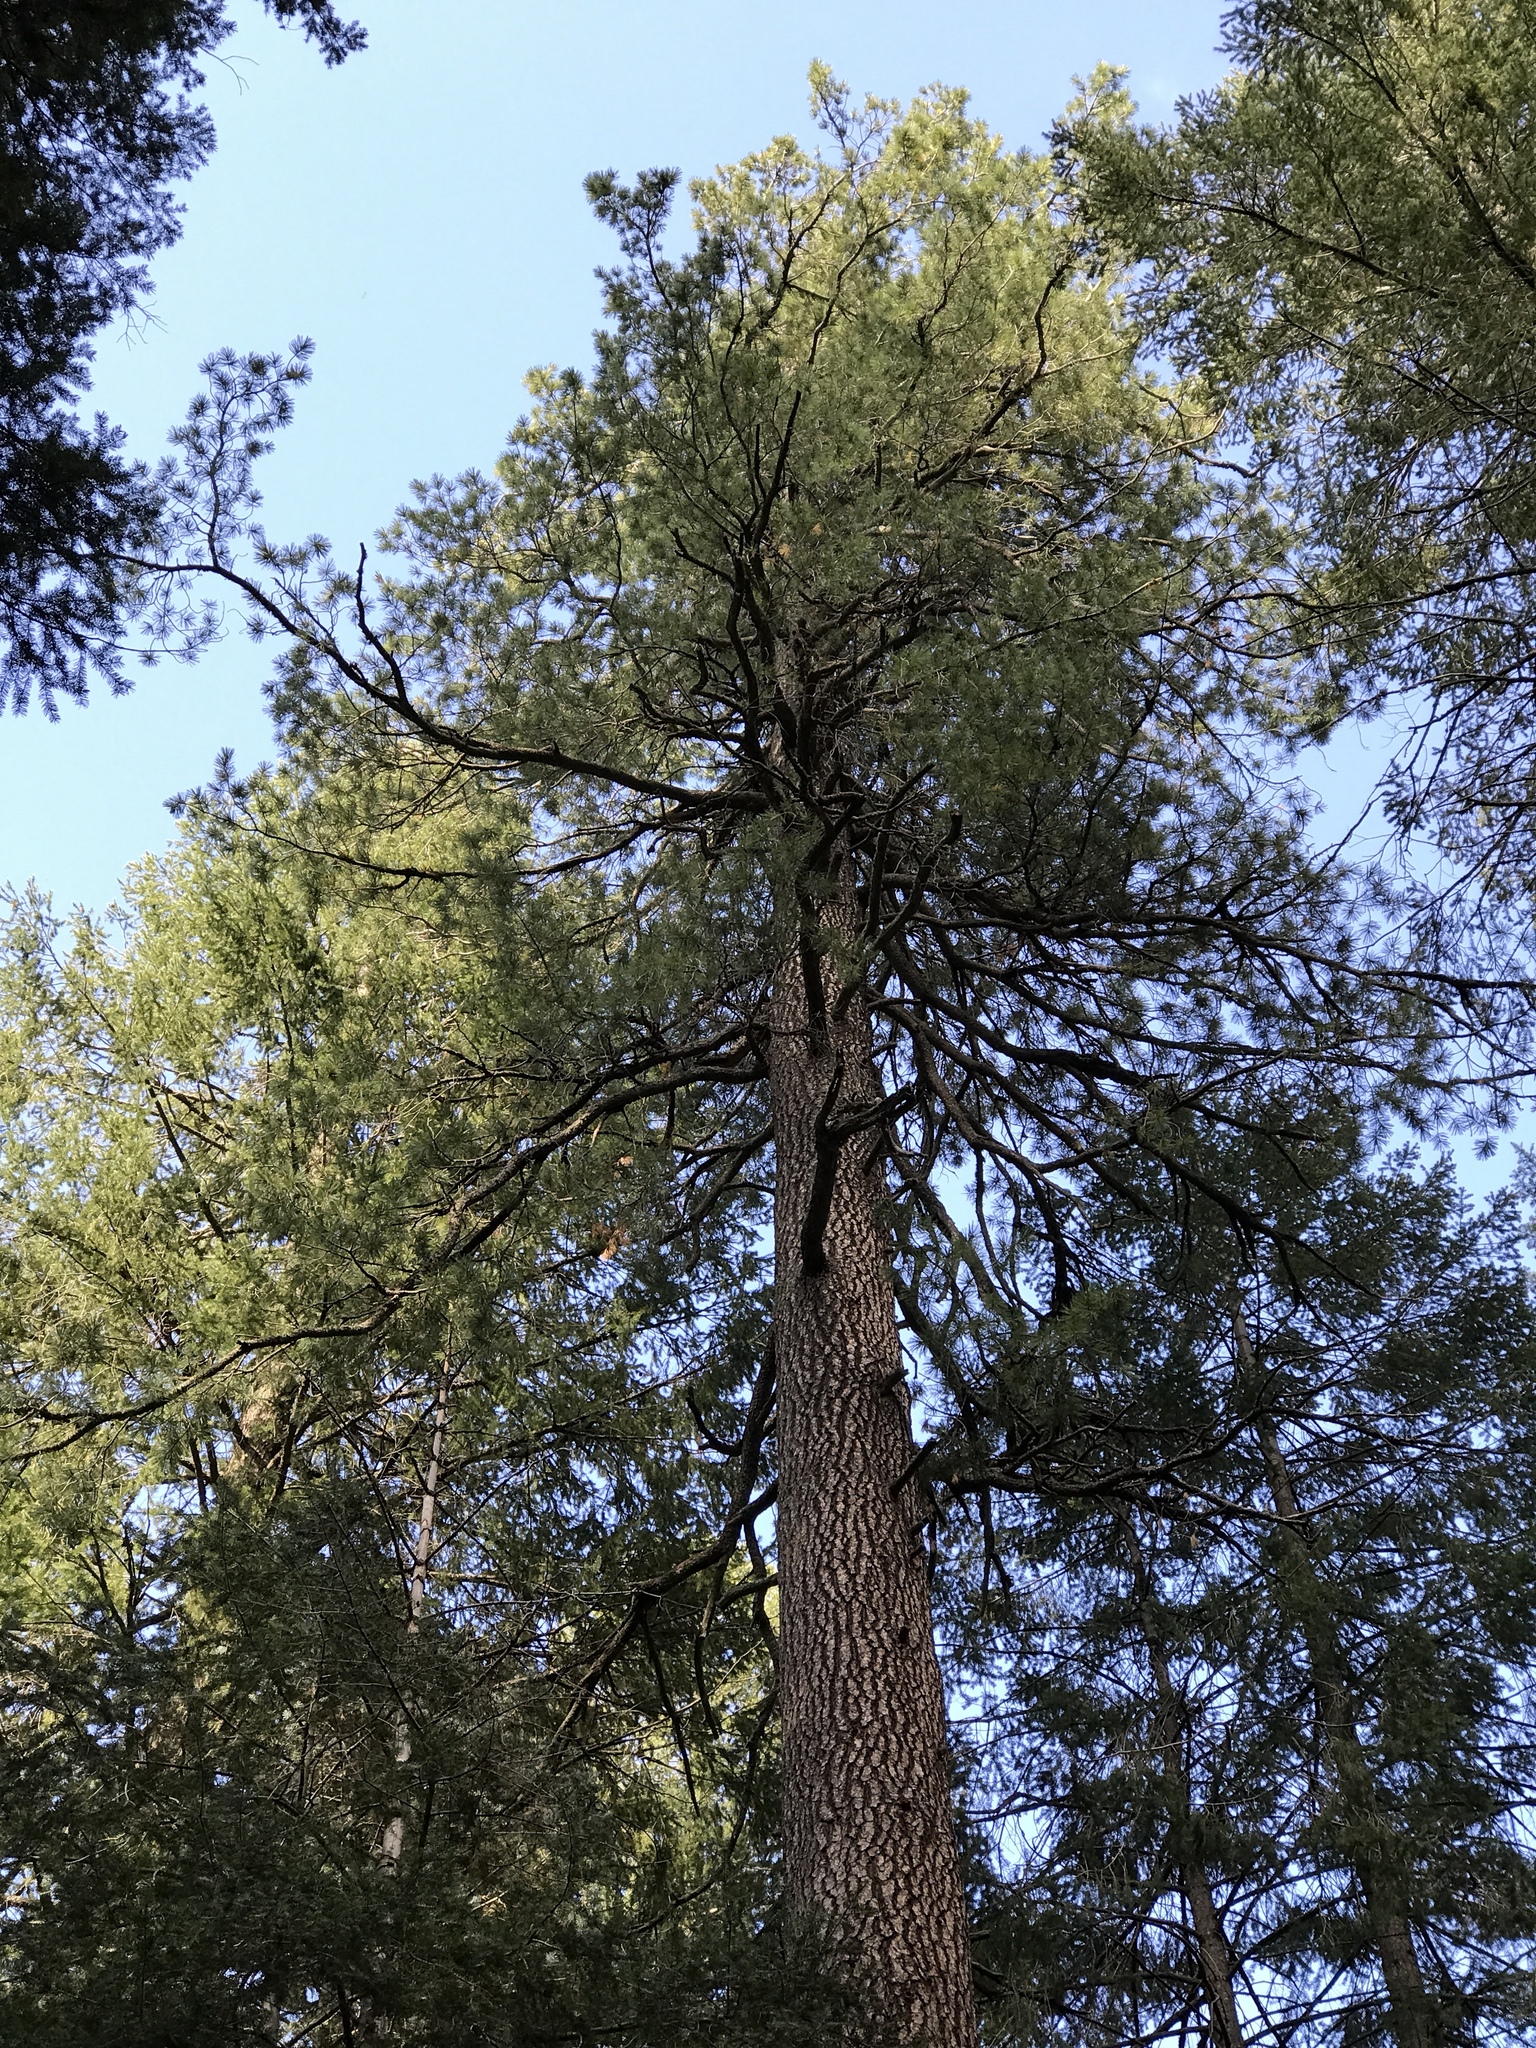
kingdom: Plantae
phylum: Tracheophyta
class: Pinopsida
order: Pinales
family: Pinaceae
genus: Pinus
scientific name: Pinus strobiformis
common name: Southwestern white pine
